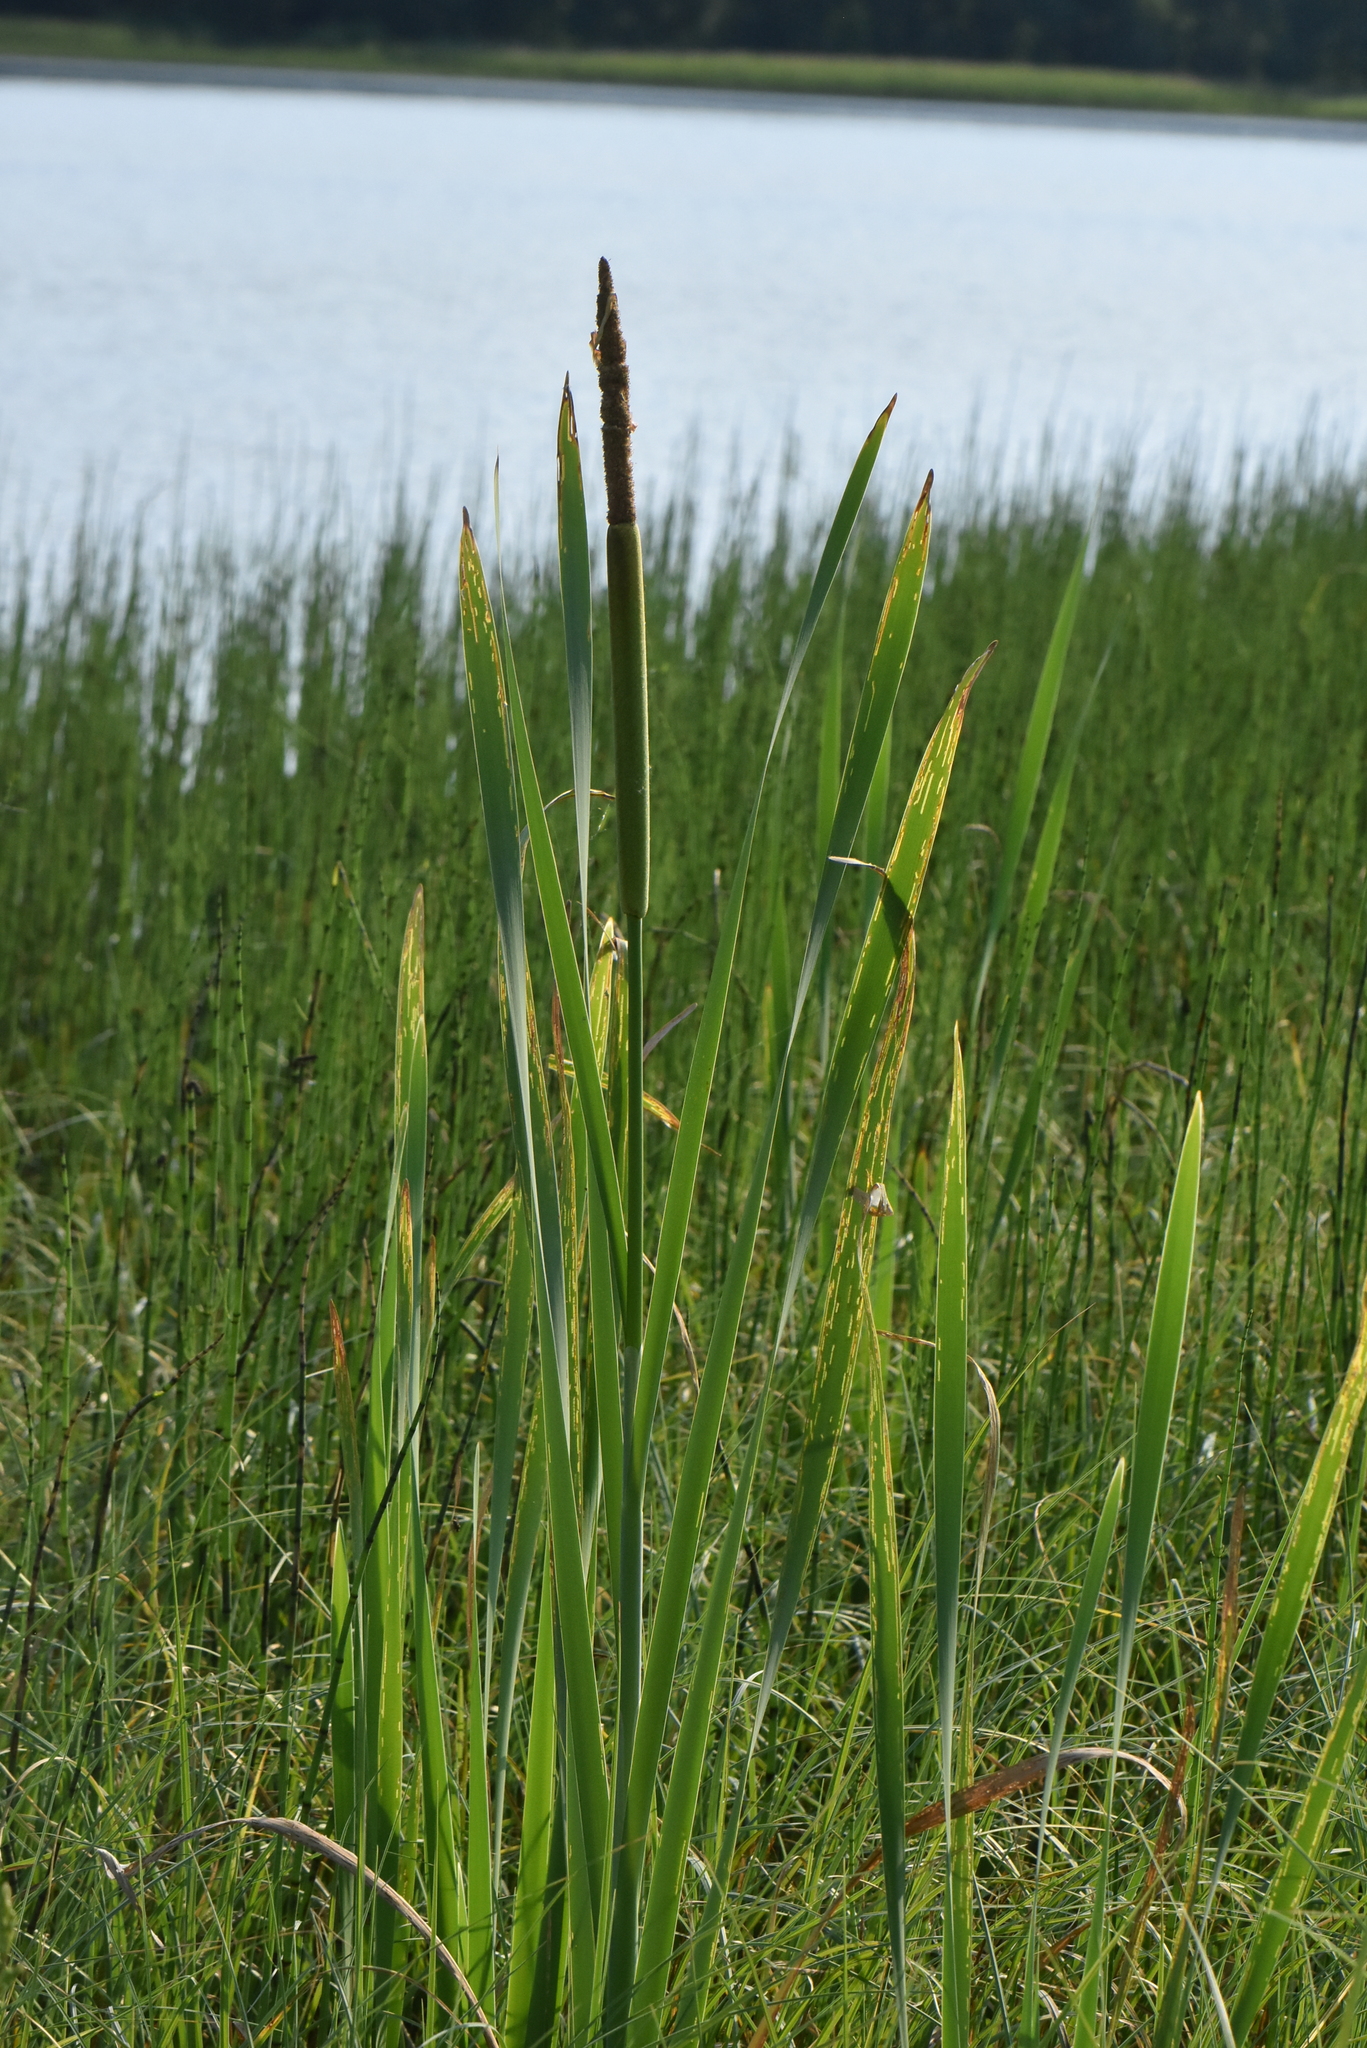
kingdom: Plantae
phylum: Tracheophyta
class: Liliopsida
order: Poales
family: Typhaceae
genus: Typha
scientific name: Typha latifolia
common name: Broadleaf cattail
